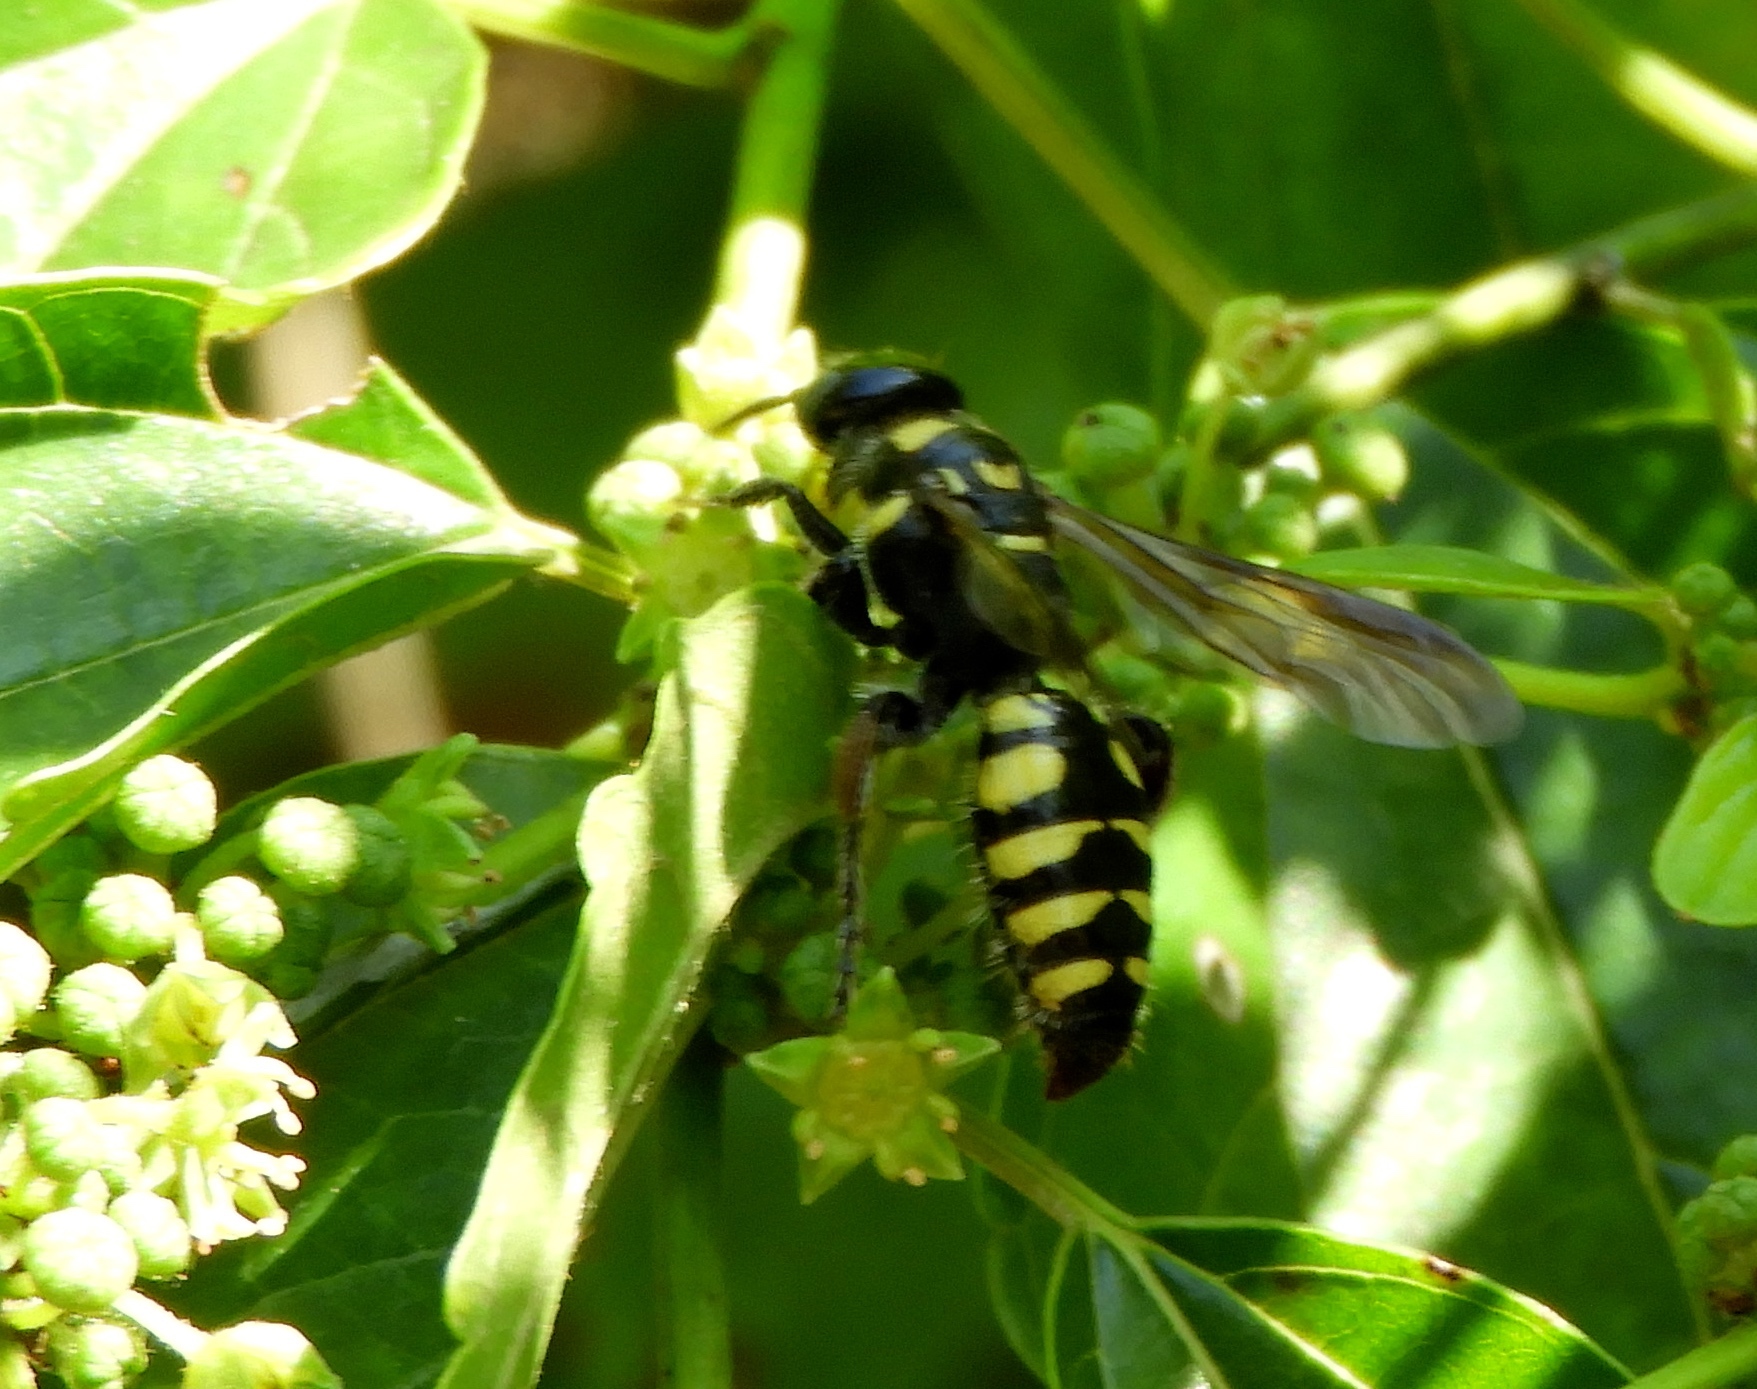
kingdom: Animalia
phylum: Arthropoda
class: Insecta
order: Hymenoptera
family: Tiphiidae
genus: Myzinum
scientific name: Myzinum
